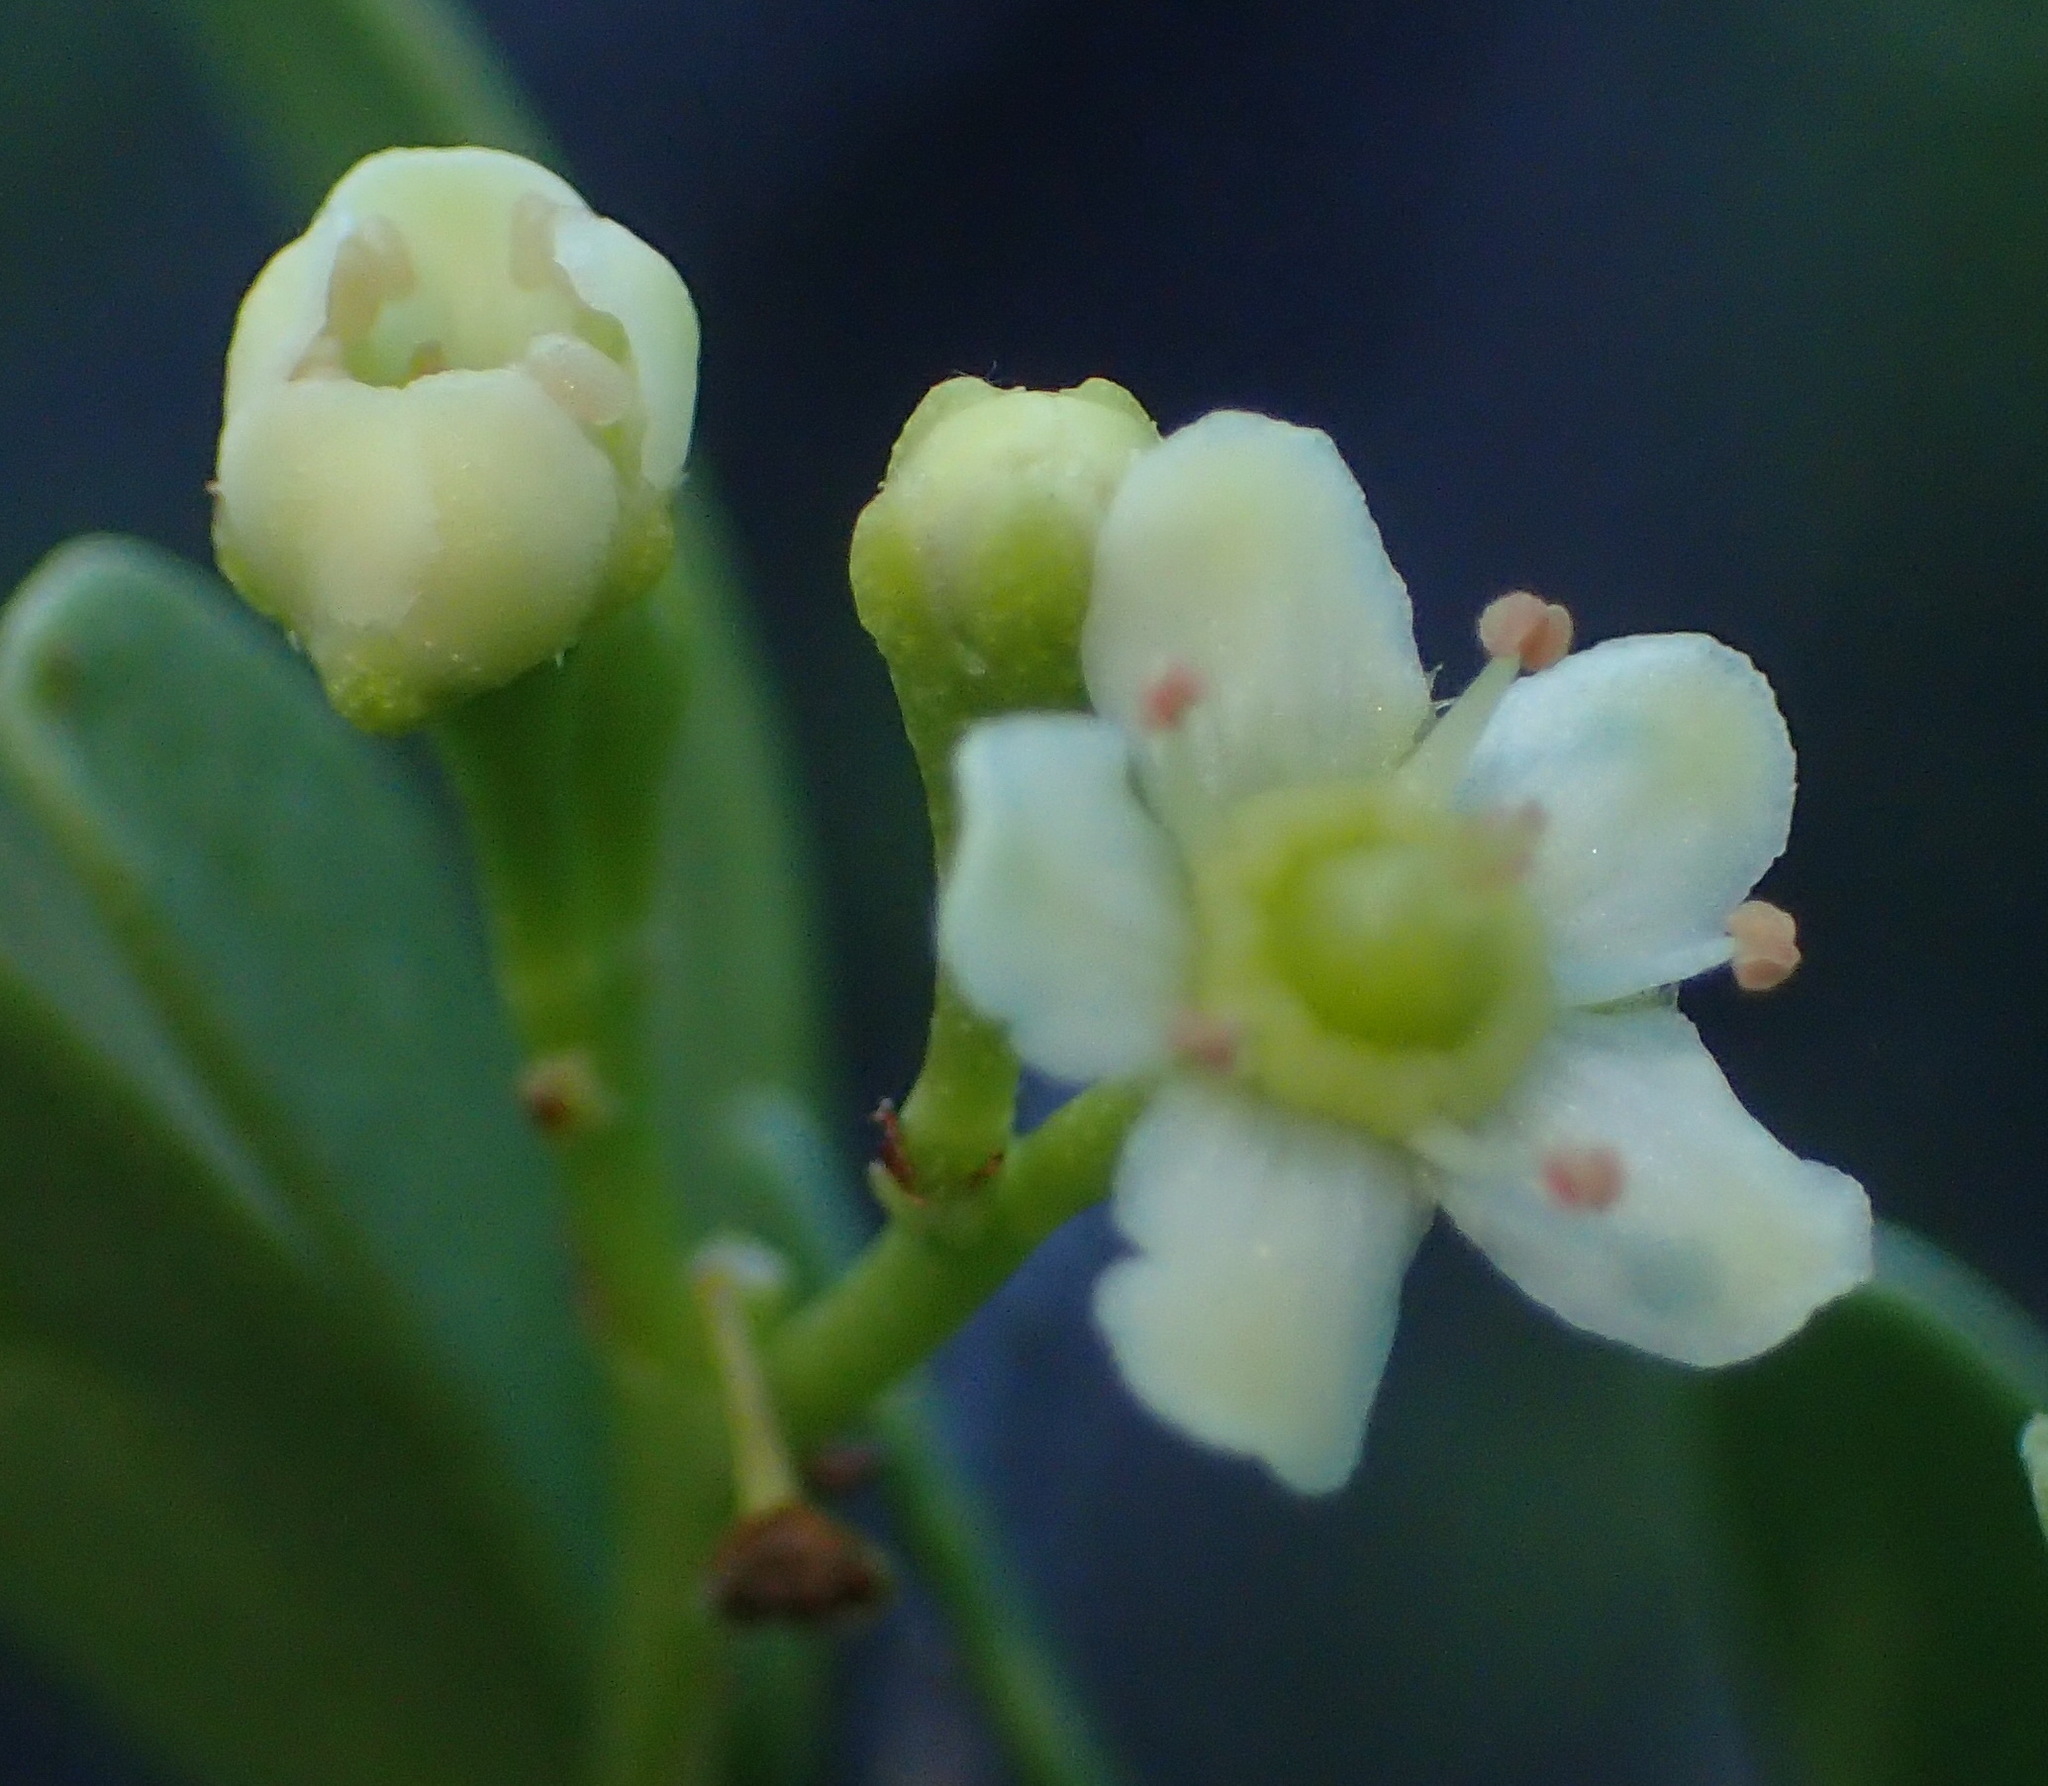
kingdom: Plantae
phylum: Tracheophyta
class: Magnoliopsida
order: Celastrales
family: Celastraceae
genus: Gymnosporia
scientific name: Gymnosporia buxifolia
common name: Common spike-thorn
